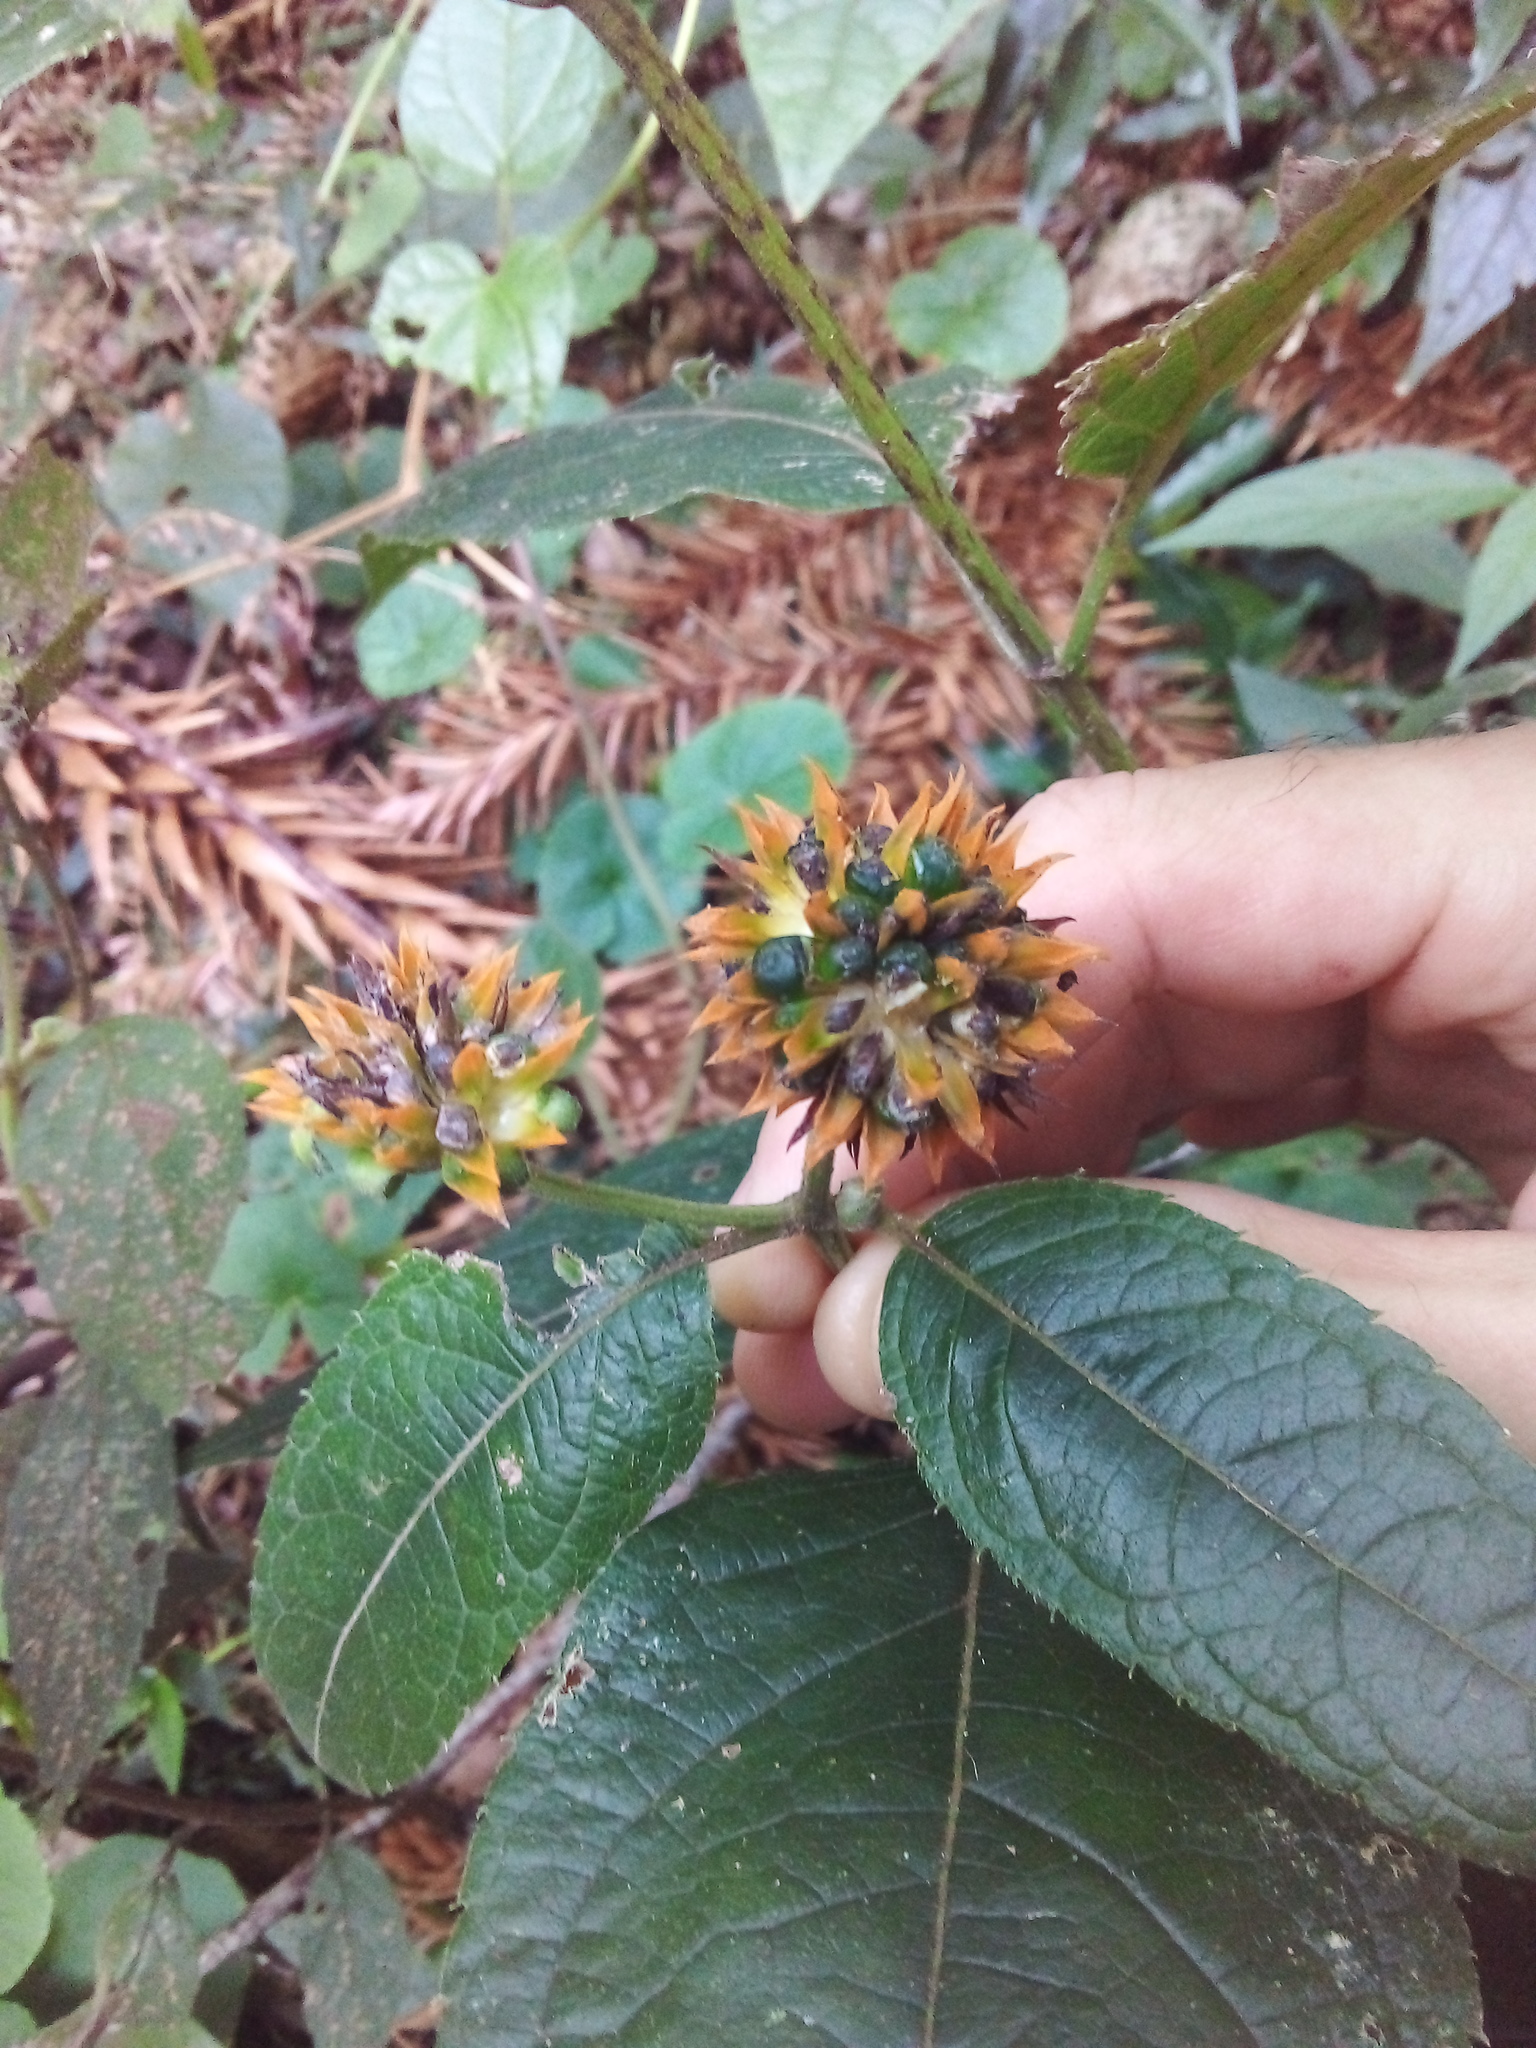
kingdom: Plantae
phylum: Tracheophyta
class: Magnoliopsida
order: Asterales
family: Asteraceae
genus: Tilesia
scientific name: Tilesia baccata
